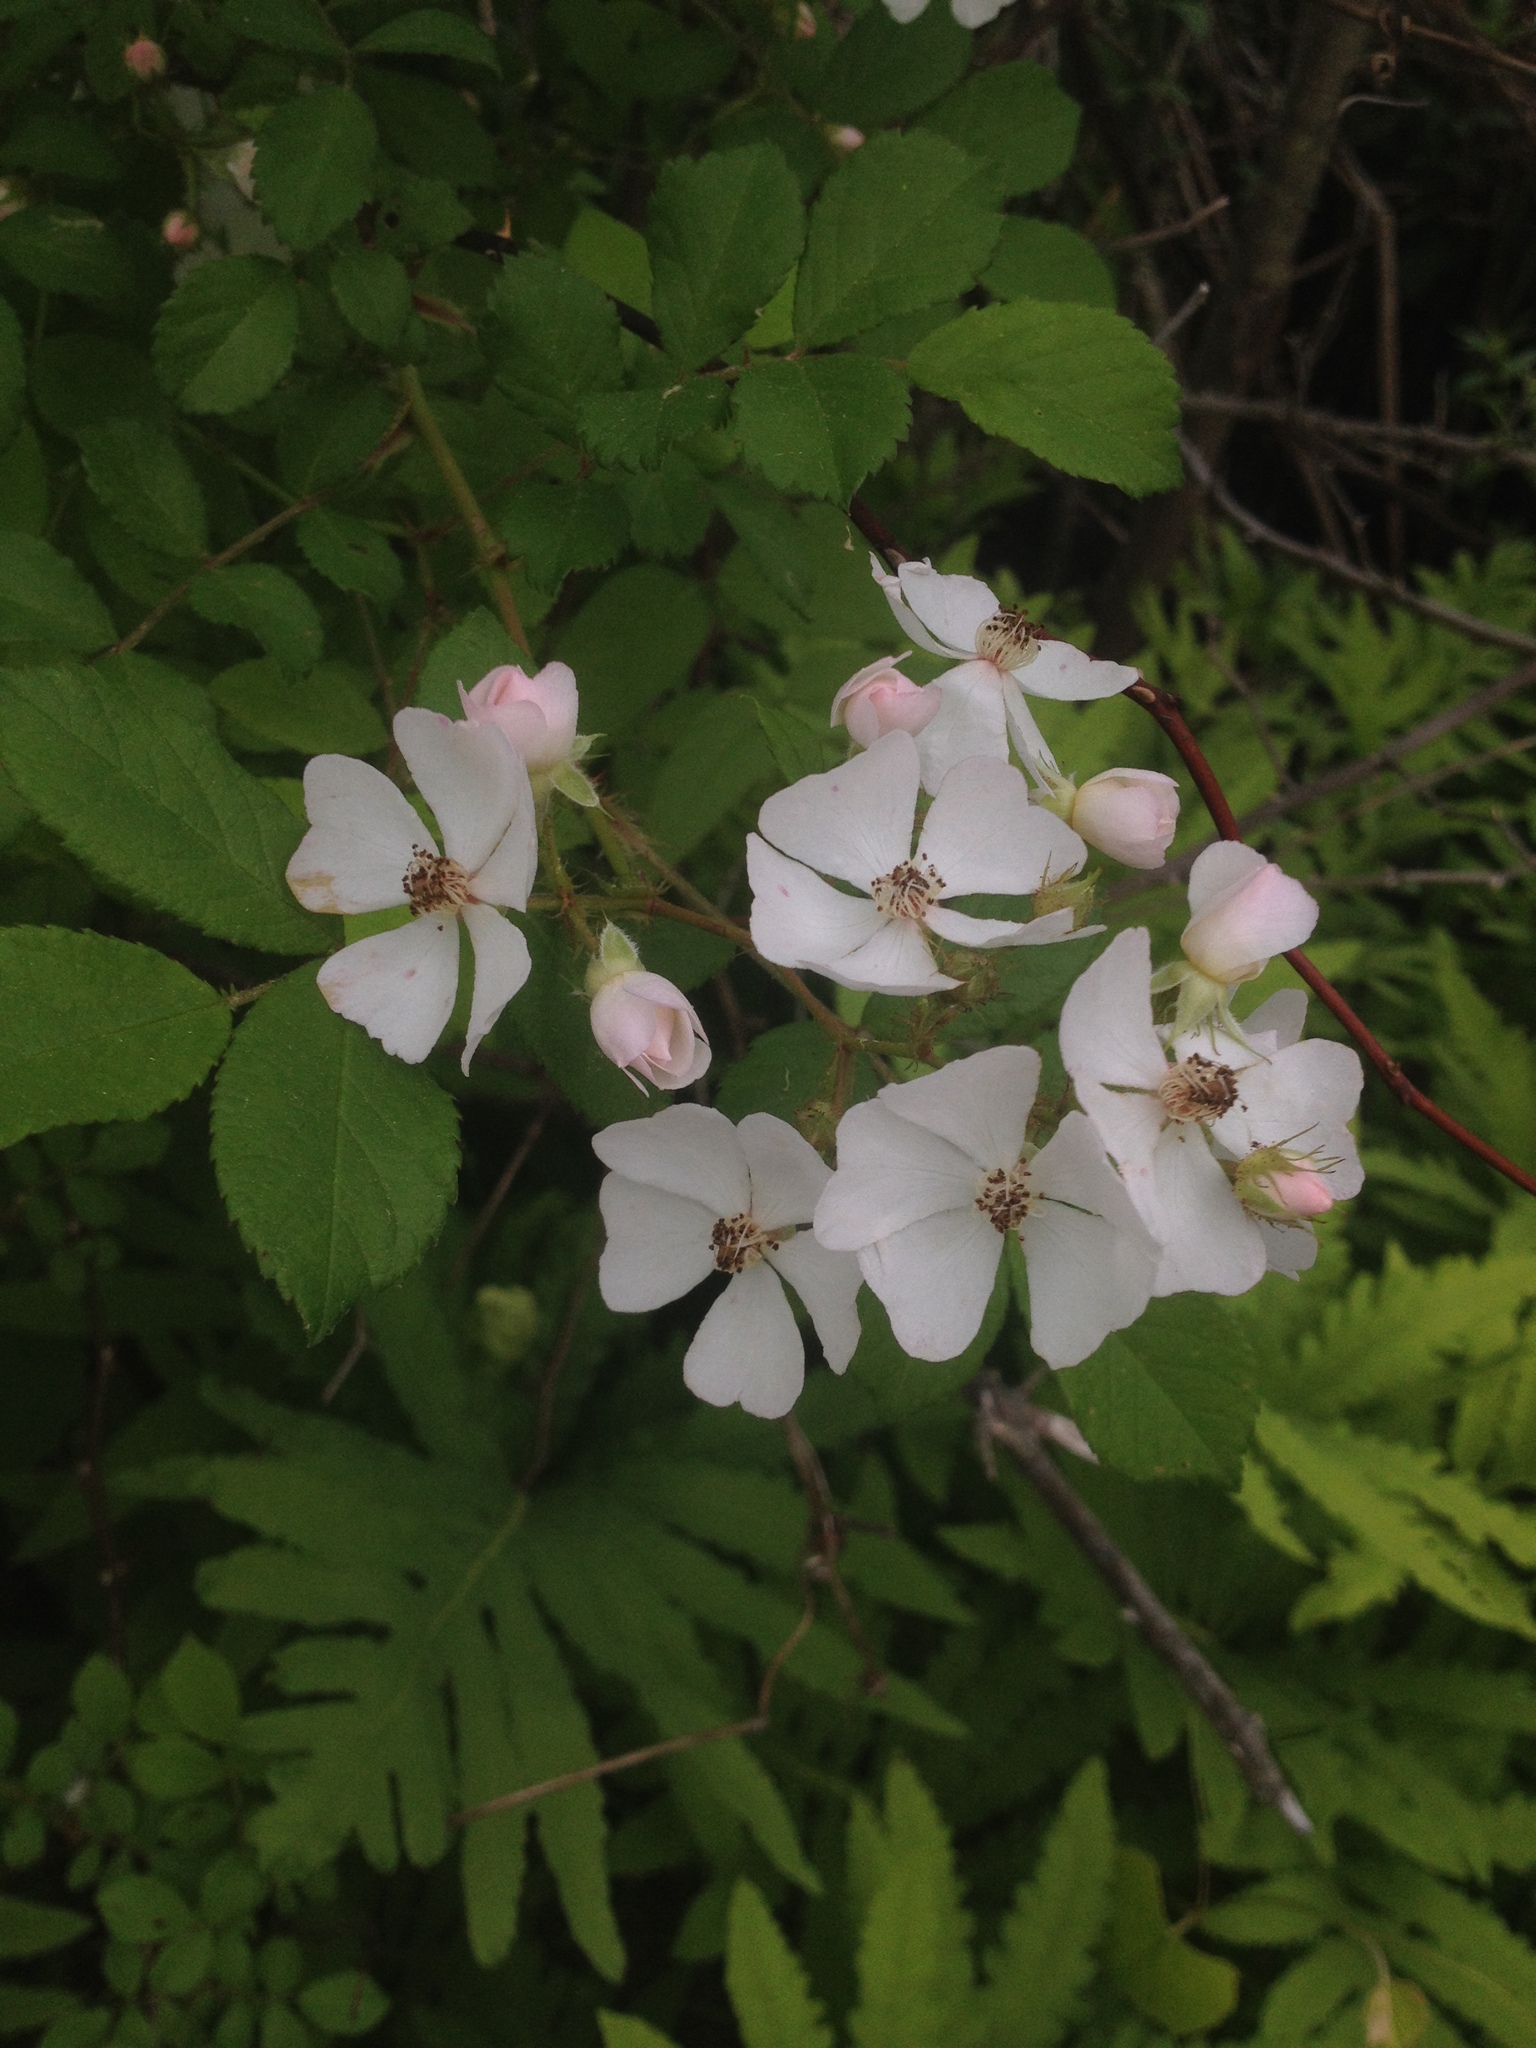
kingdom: Plantae
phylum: Tracheophyta
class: Magnoliopsida
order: Rosales
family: Rosaceae
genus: Rosa
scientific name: Rosa multiflora
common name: Multiflora rose
